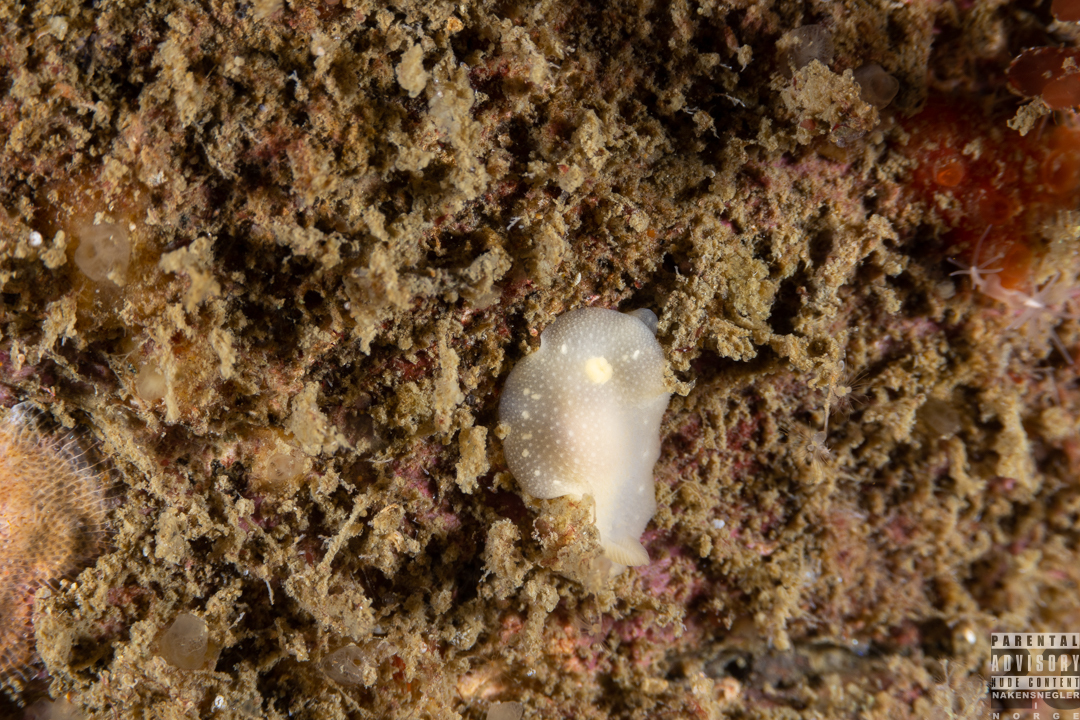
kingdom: Animalia
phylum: Mollusca
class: Gastropoda
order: Nudibranchia
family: Cadlinidae
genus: Cadlina
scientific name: Cadlina laevis
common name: White atlantic cadlina
